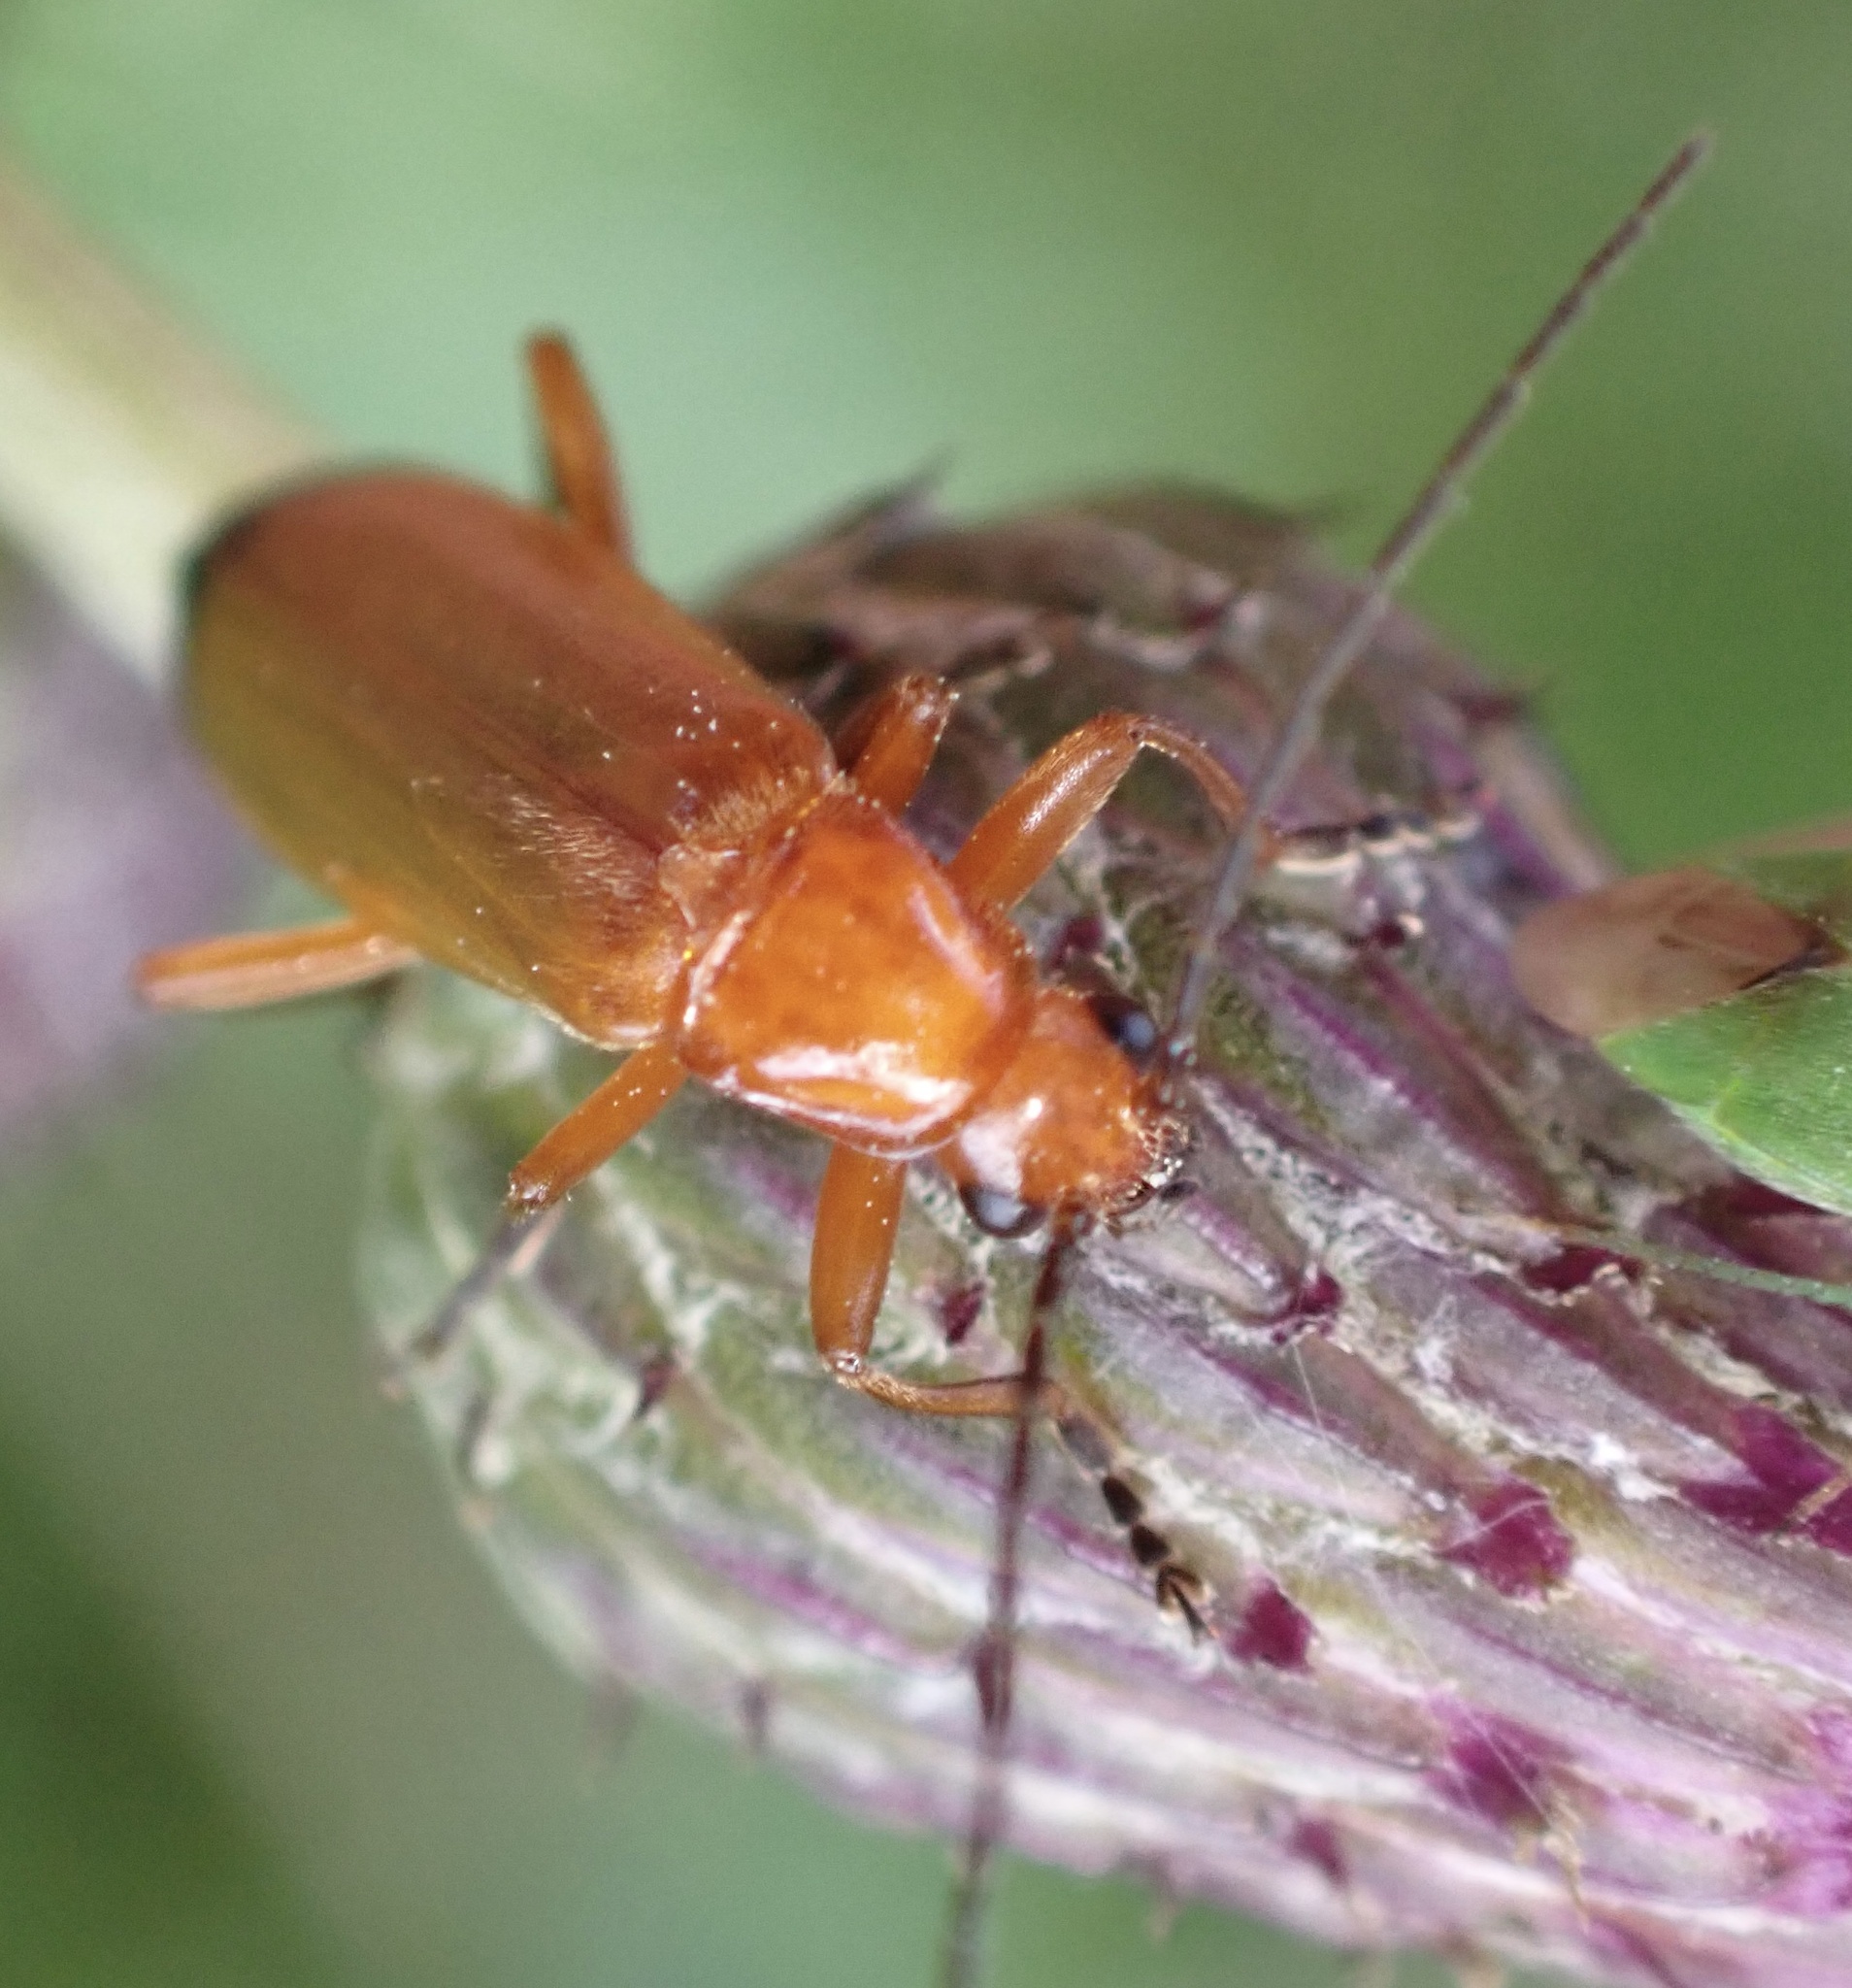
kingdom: Animalia
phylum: Arthropoda
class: Insecta
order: Coleoptera
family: Cantharidae
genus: Rhagonycha
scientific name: Rhagonycha fulva
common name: Common red soldier beetle
